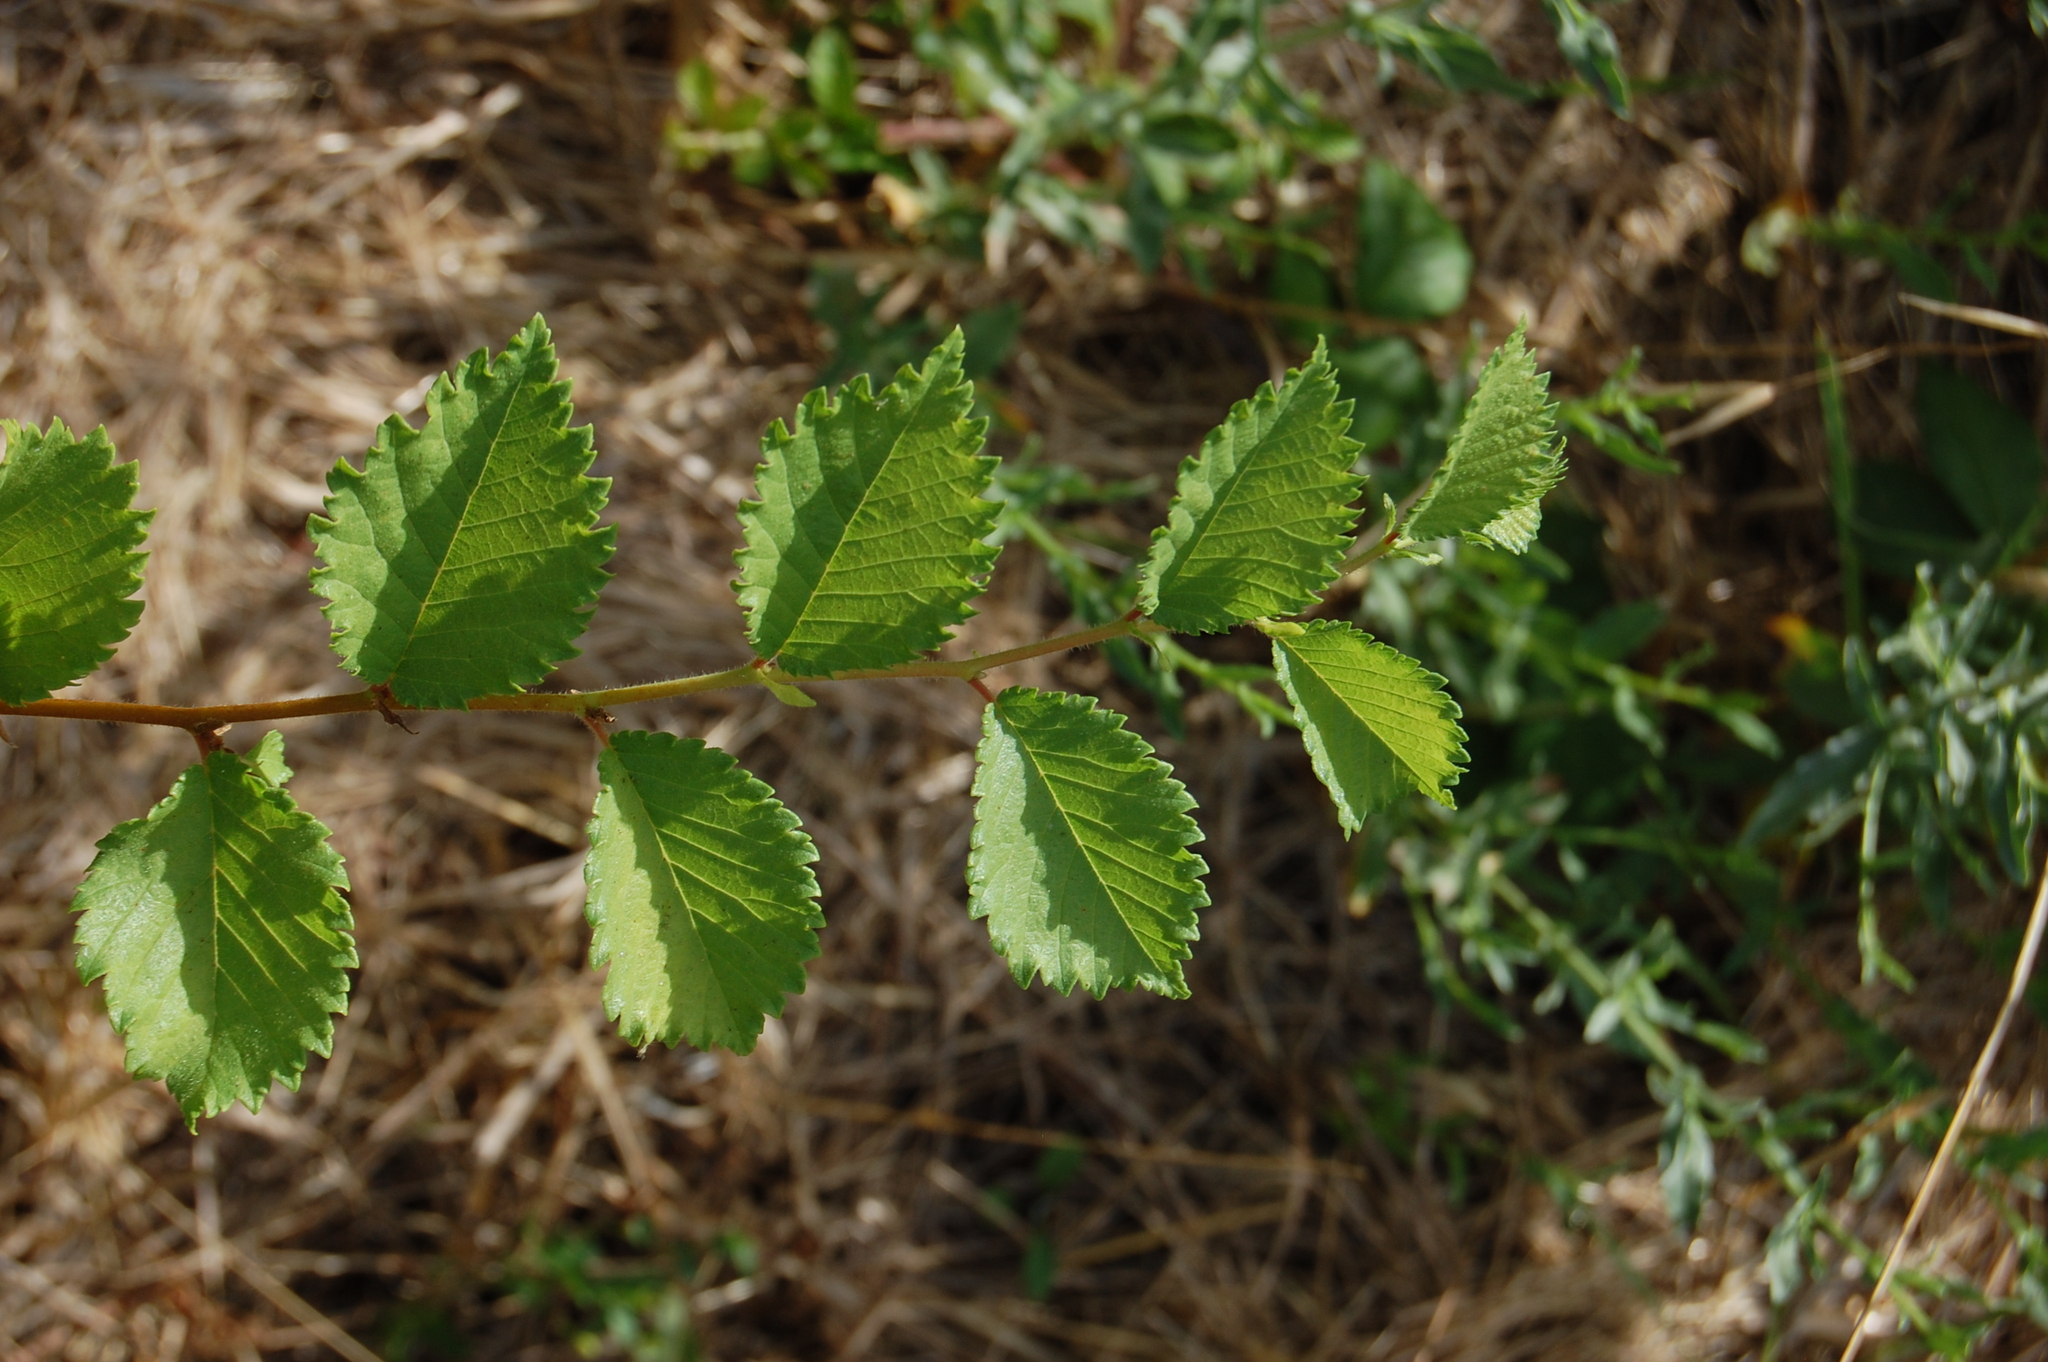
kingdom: Plantae
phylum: Tracheophyta
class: Magnoliopsida
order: Rosales
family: Ulmaceae
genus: Ulmus
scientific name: Ulmus minor
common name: Small-leaved elm
